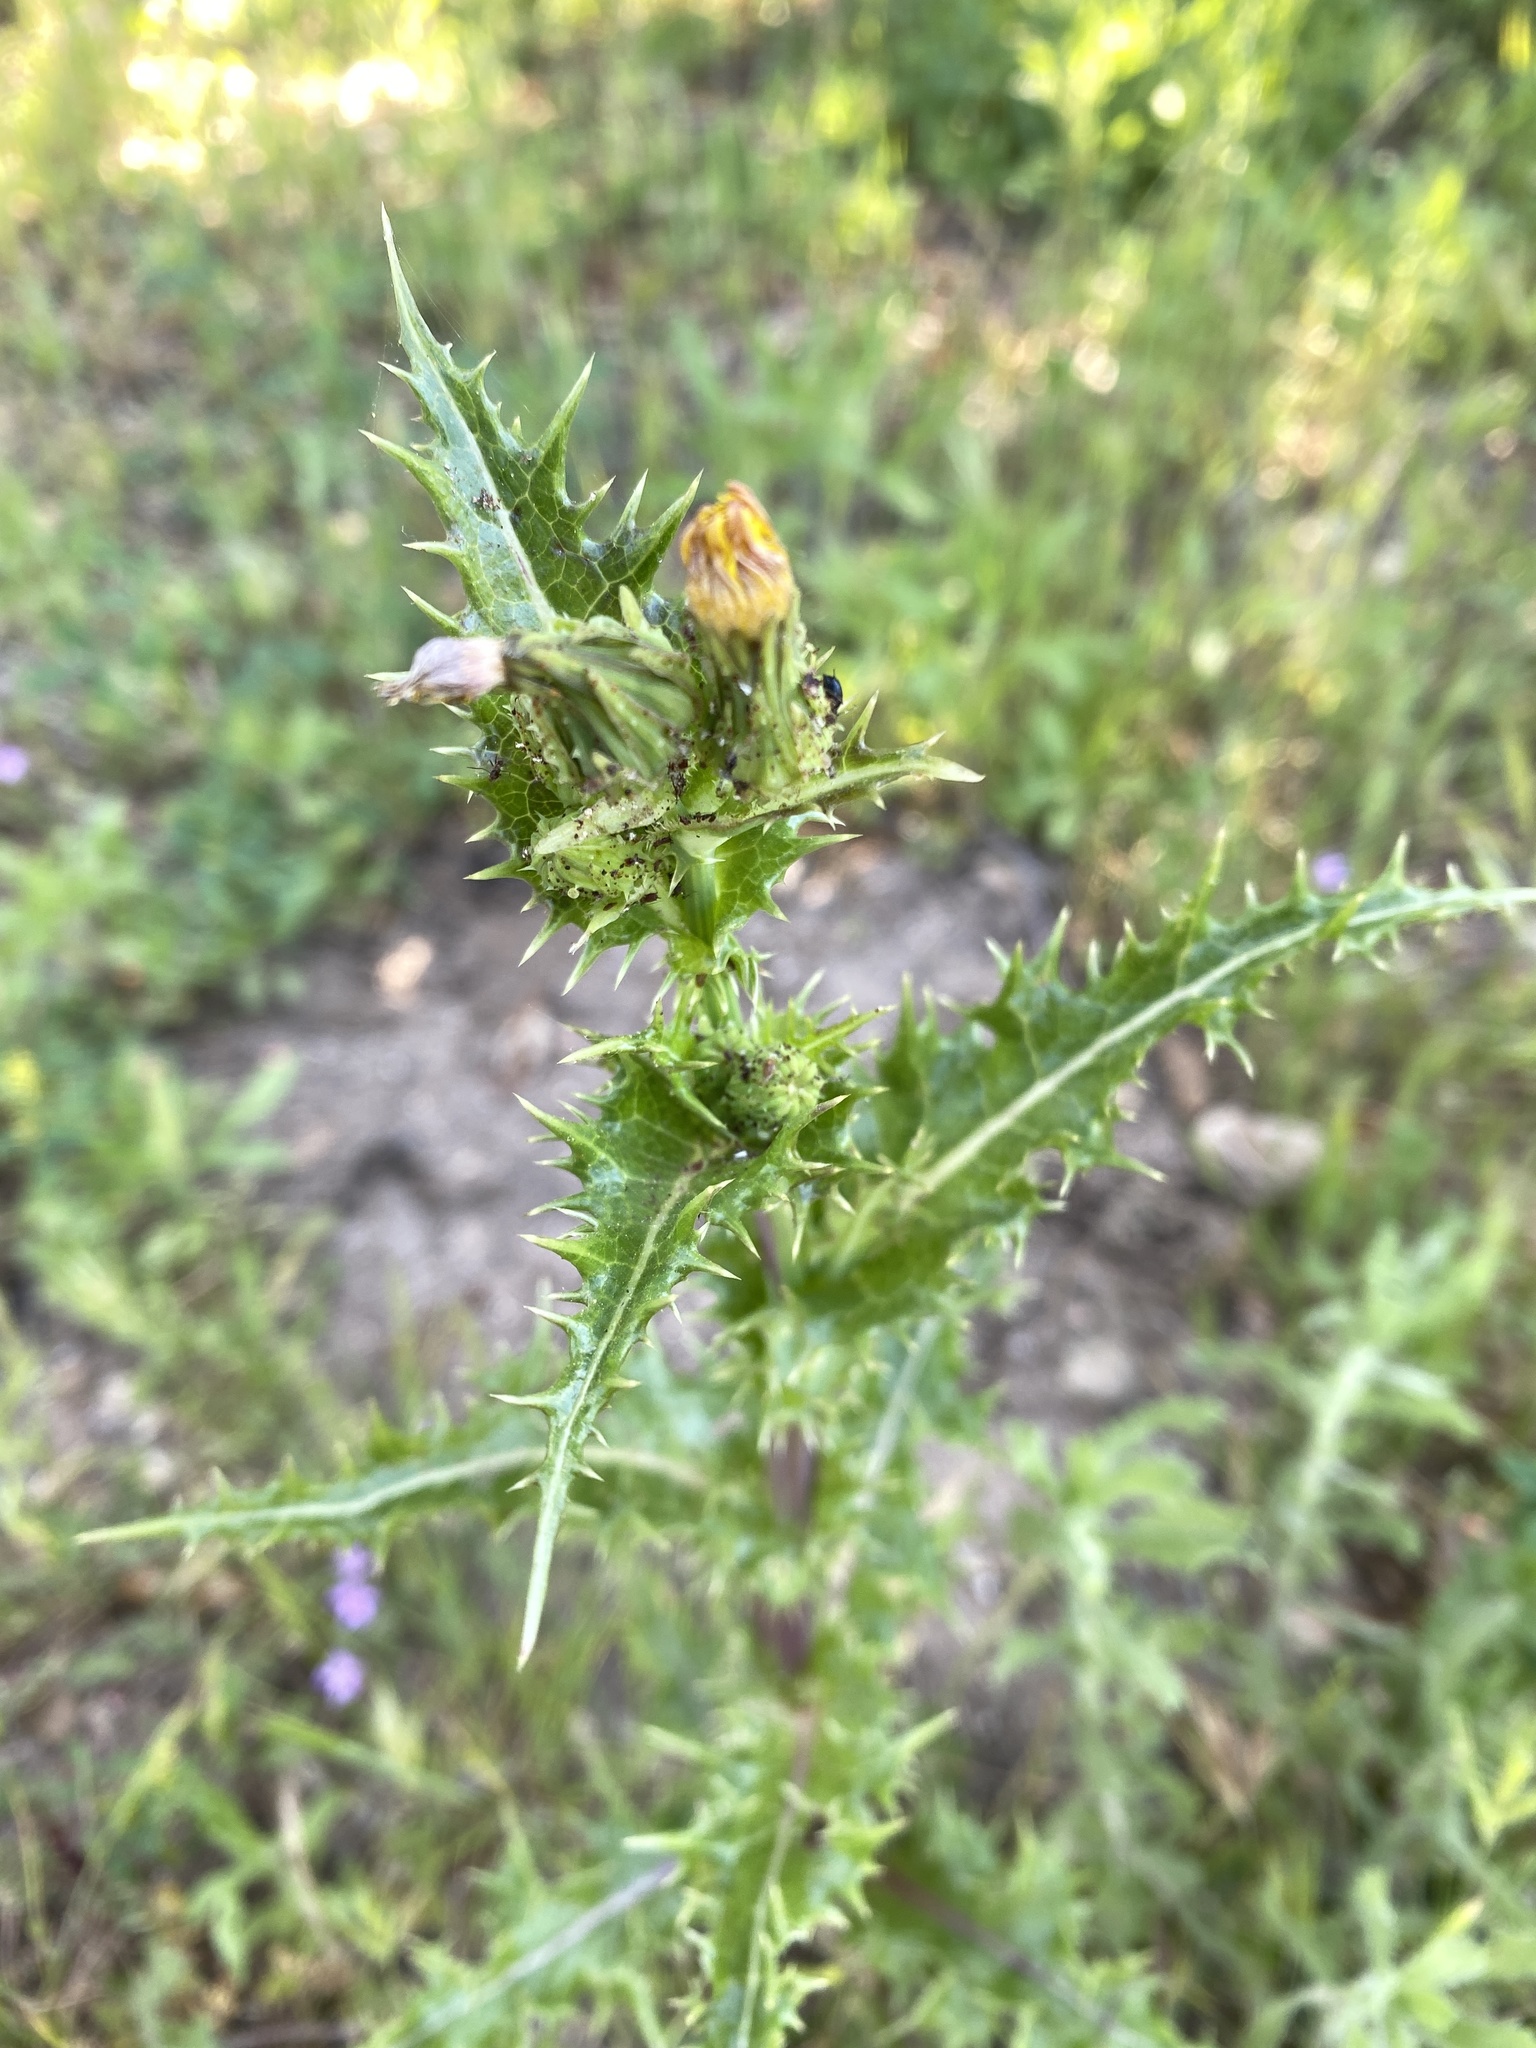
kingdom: Plantae
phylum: Tracheophyta
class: Magnoliopsida
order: Asterales
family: Asteraceae
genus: Sonchus
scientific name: Sonchus asper
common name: Prickly sow-thistle
